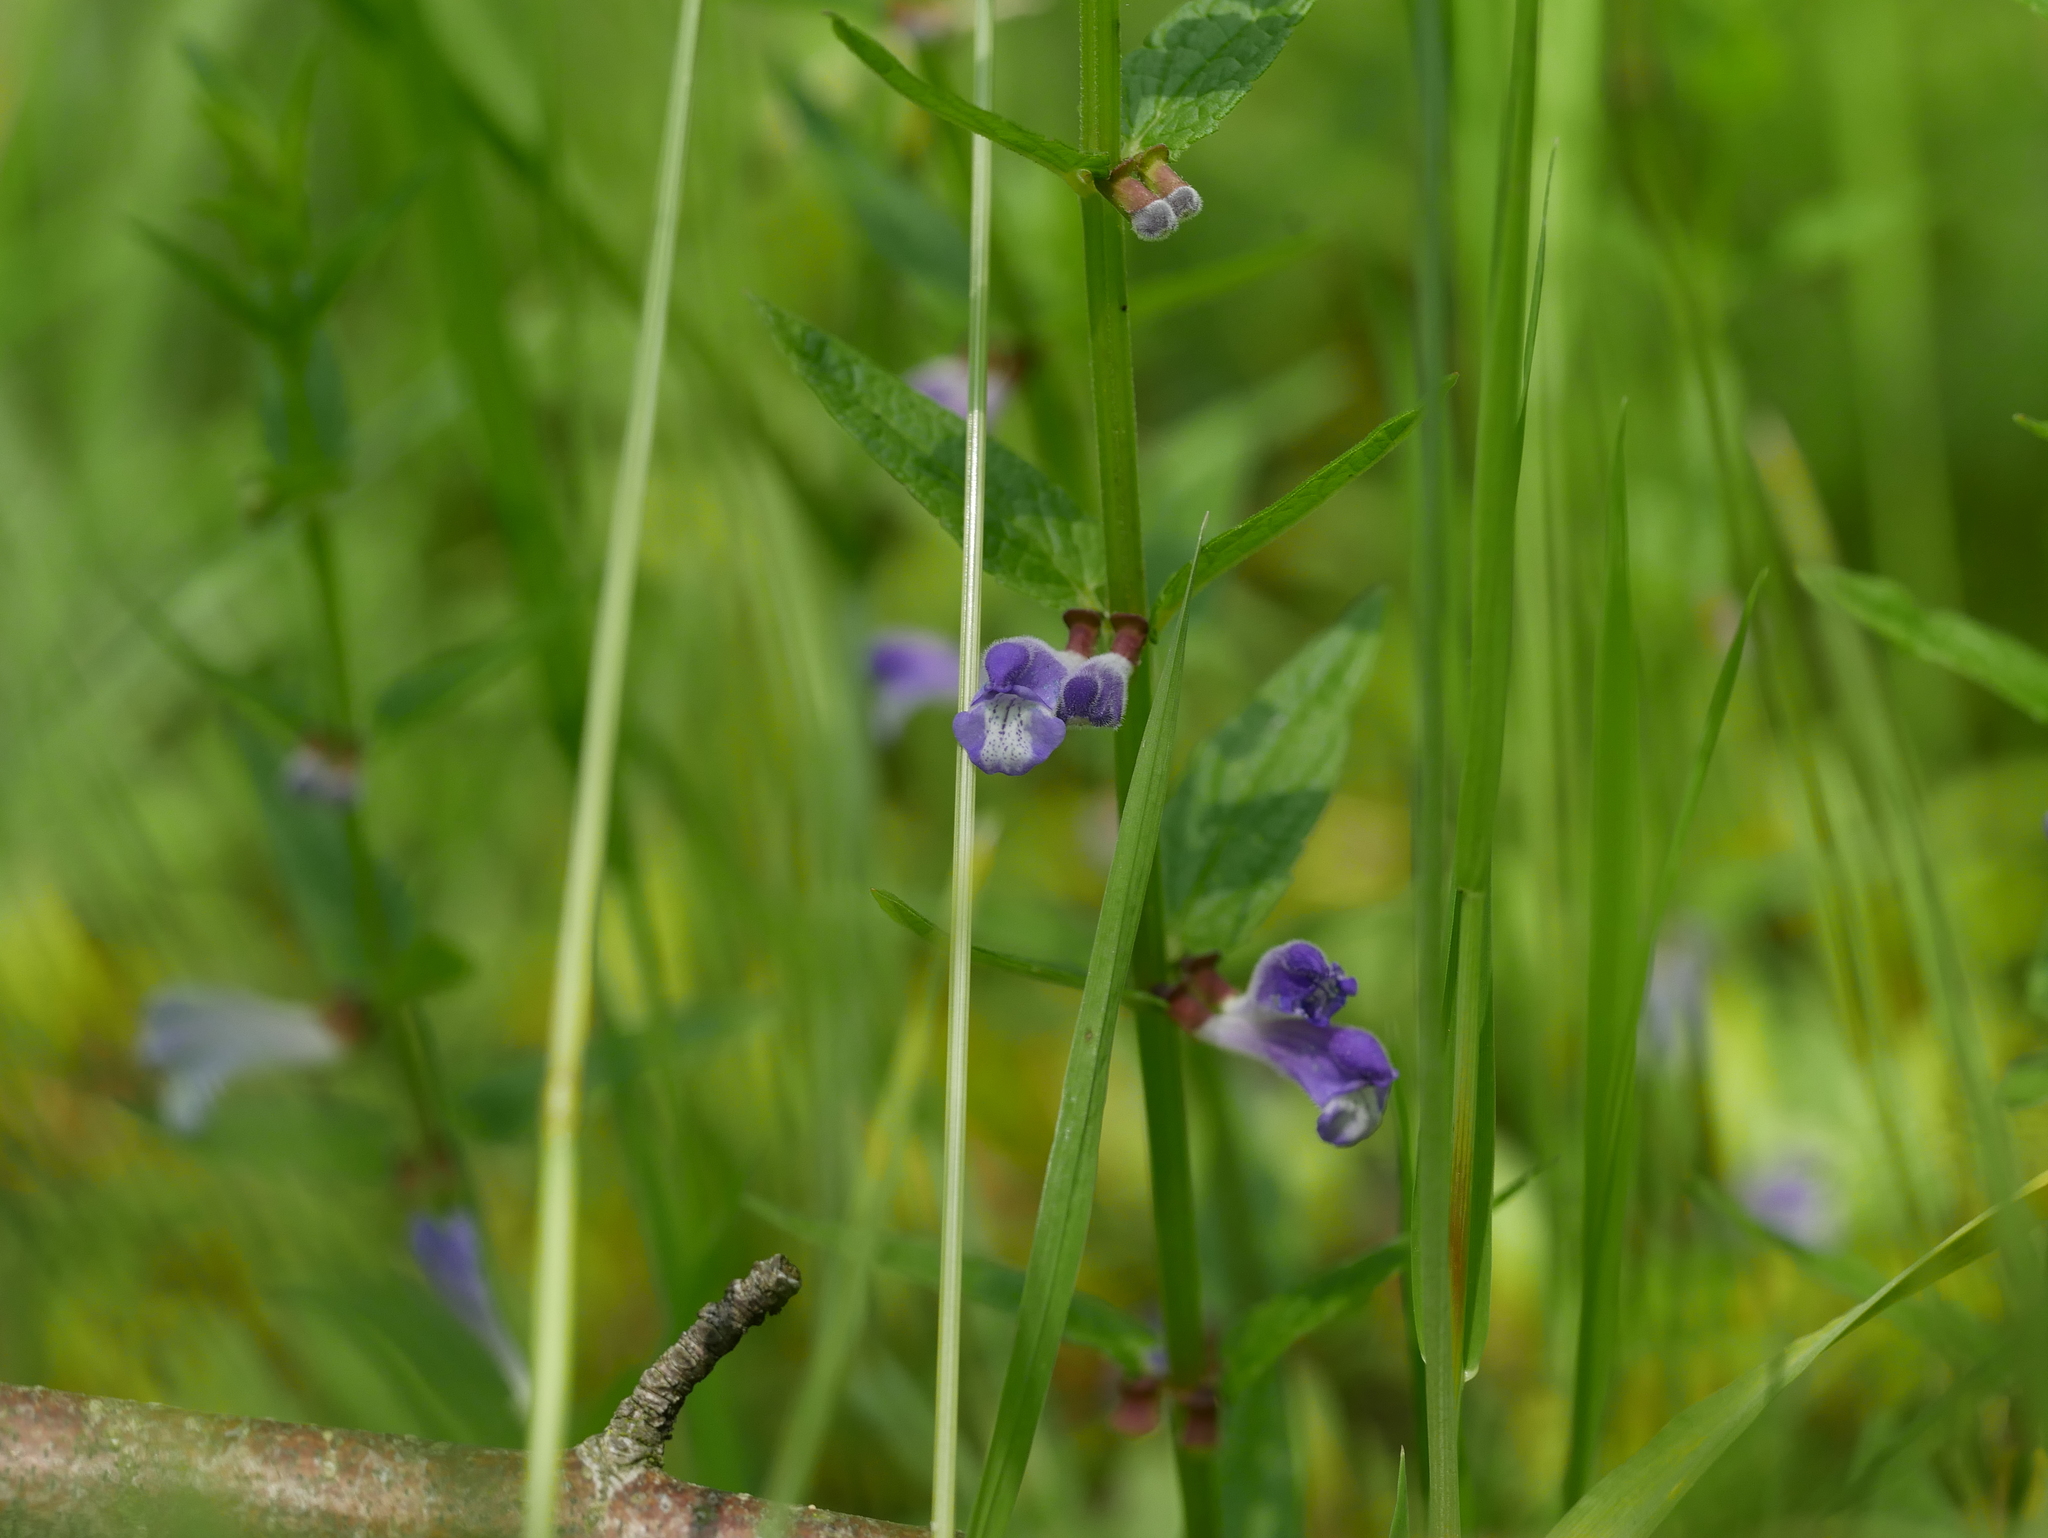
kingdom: Plantae
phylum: Tracheophyta
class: Magnoliopsida
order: Lamiales
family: Lamiaceae
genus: Scutellaria
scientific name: Scutellaria galericulata
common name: Skullcap
